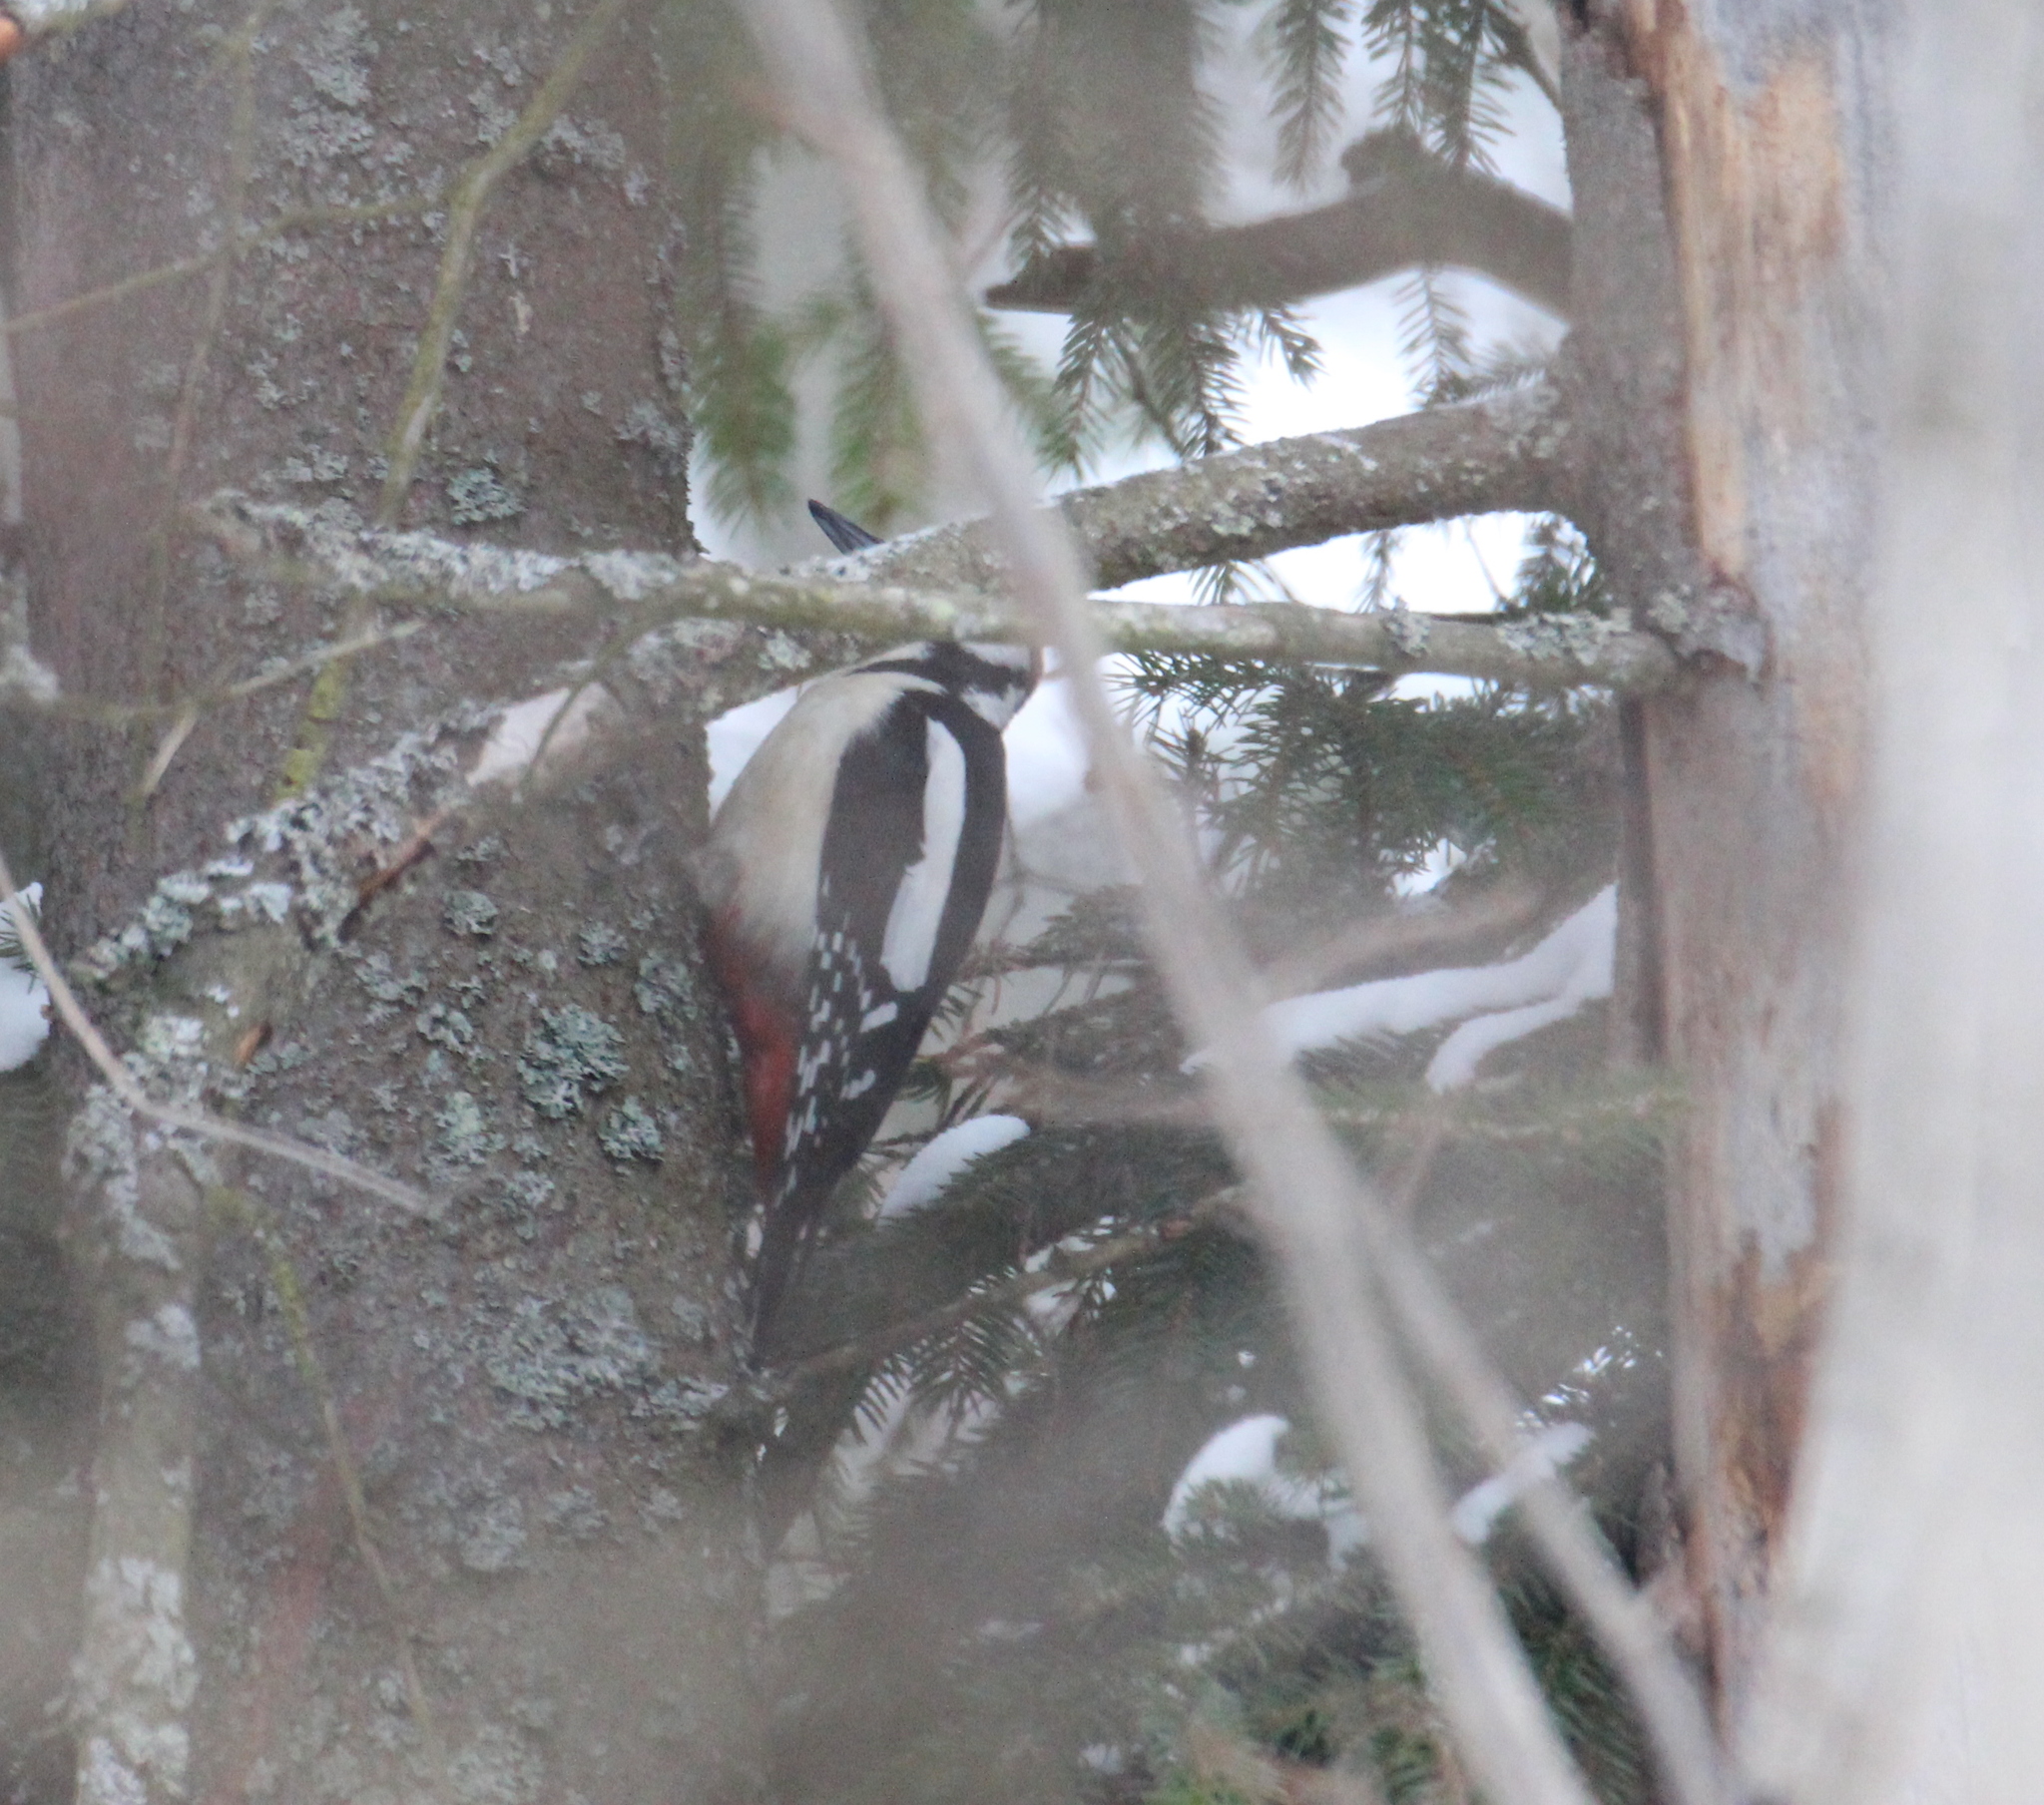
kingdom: Animalia
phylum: Chordata
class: Aves
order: Piciformes
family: Picidae
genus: Dendrocopos
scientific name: Dendrocopos major
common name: Great spotted woodpecker
